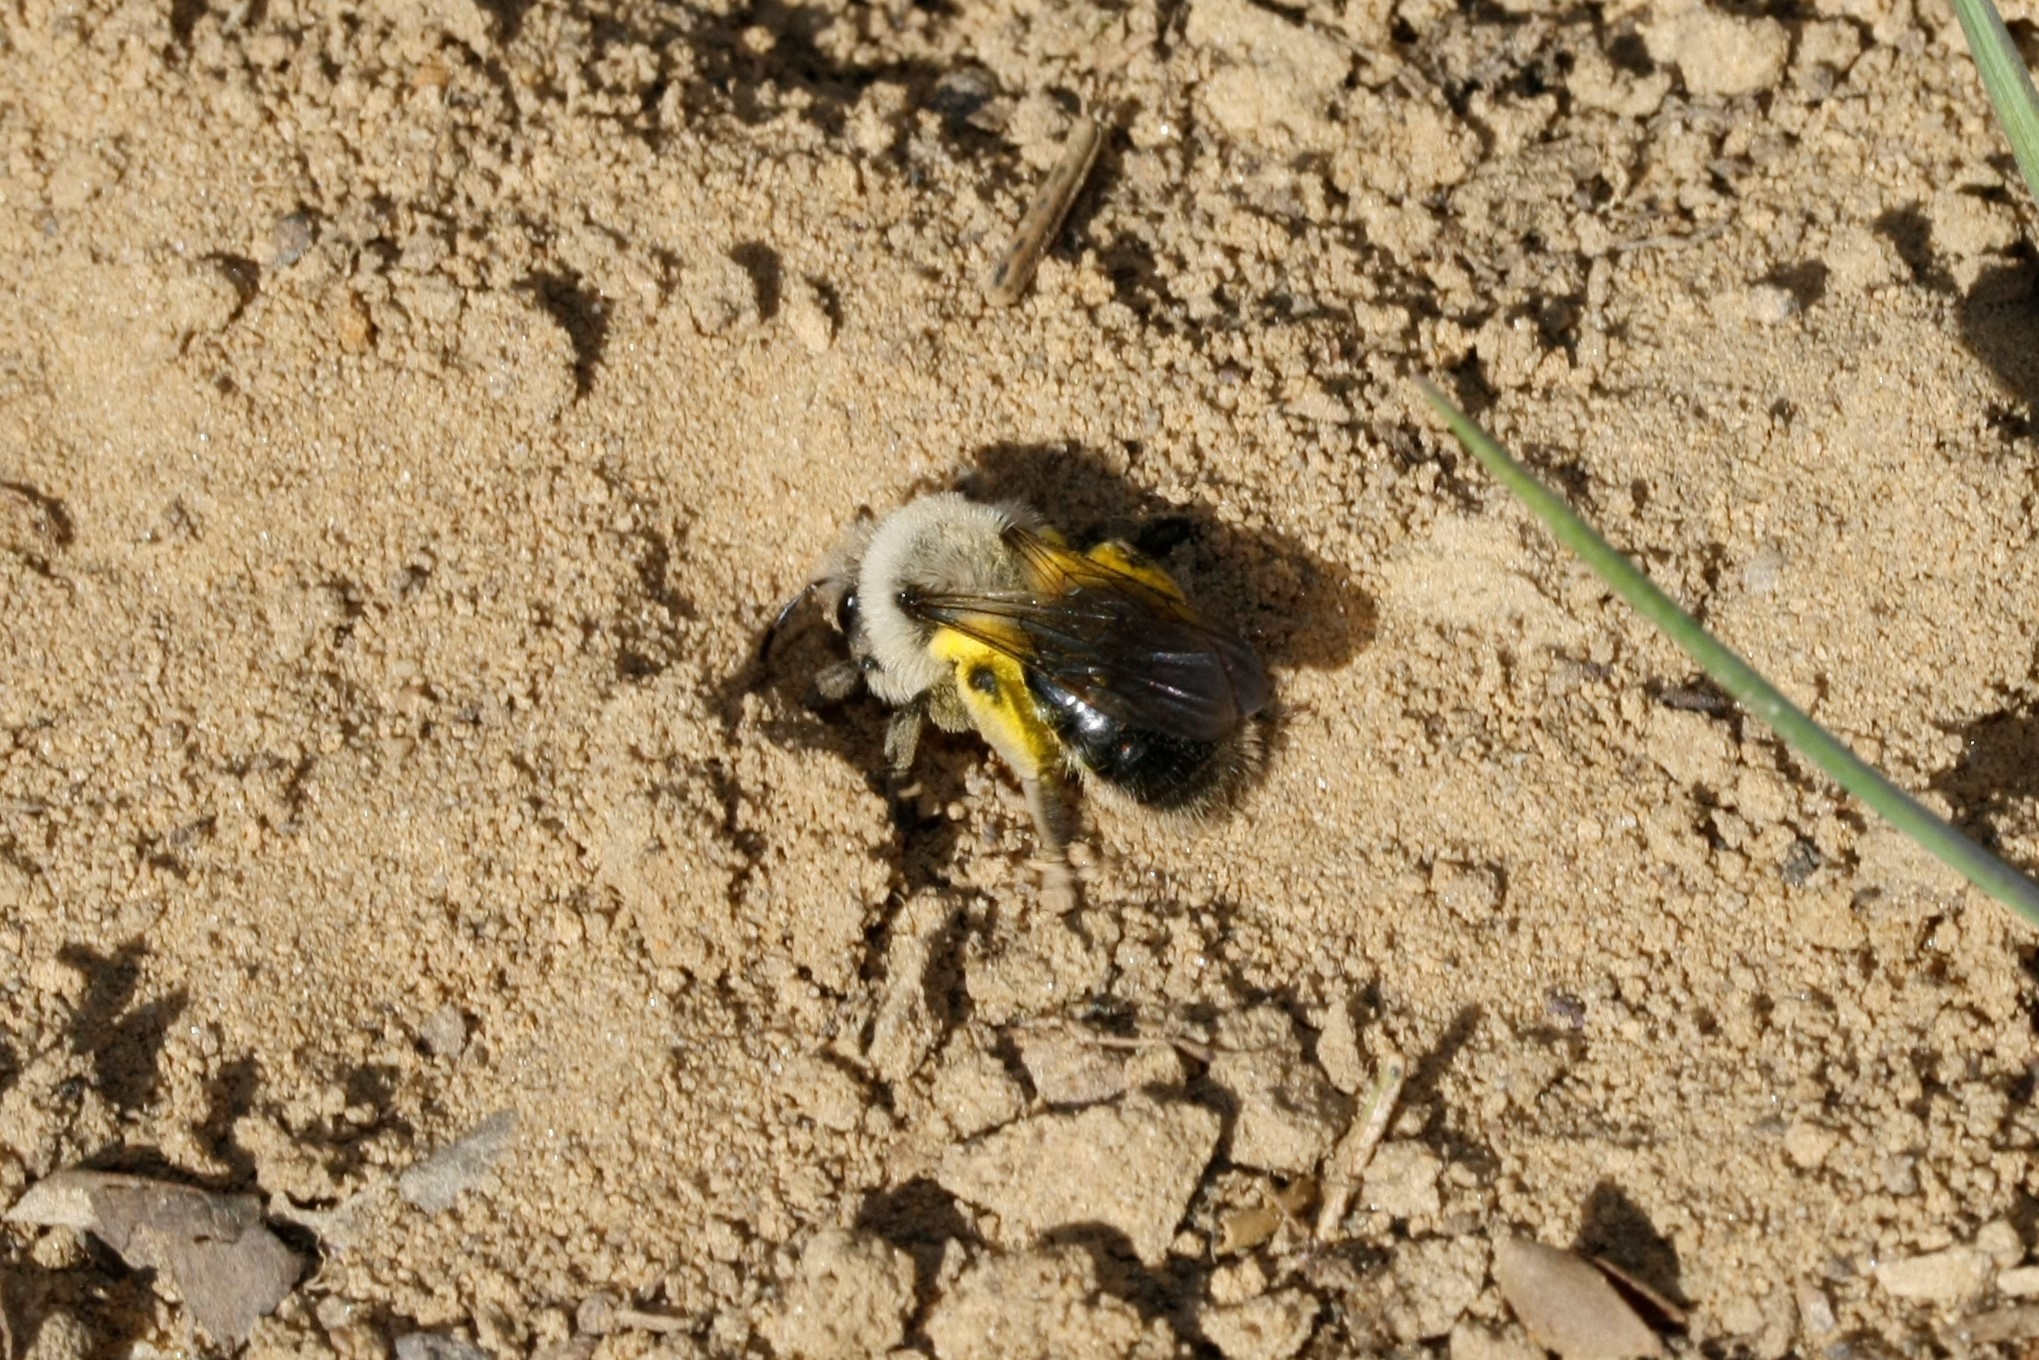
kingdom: Animalia
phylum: Arthropoda
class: Insecta
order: Hymenoptera
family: Andrenidae
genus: Andrena
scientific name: Andrena vaga
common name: Grey-backed mining bee
